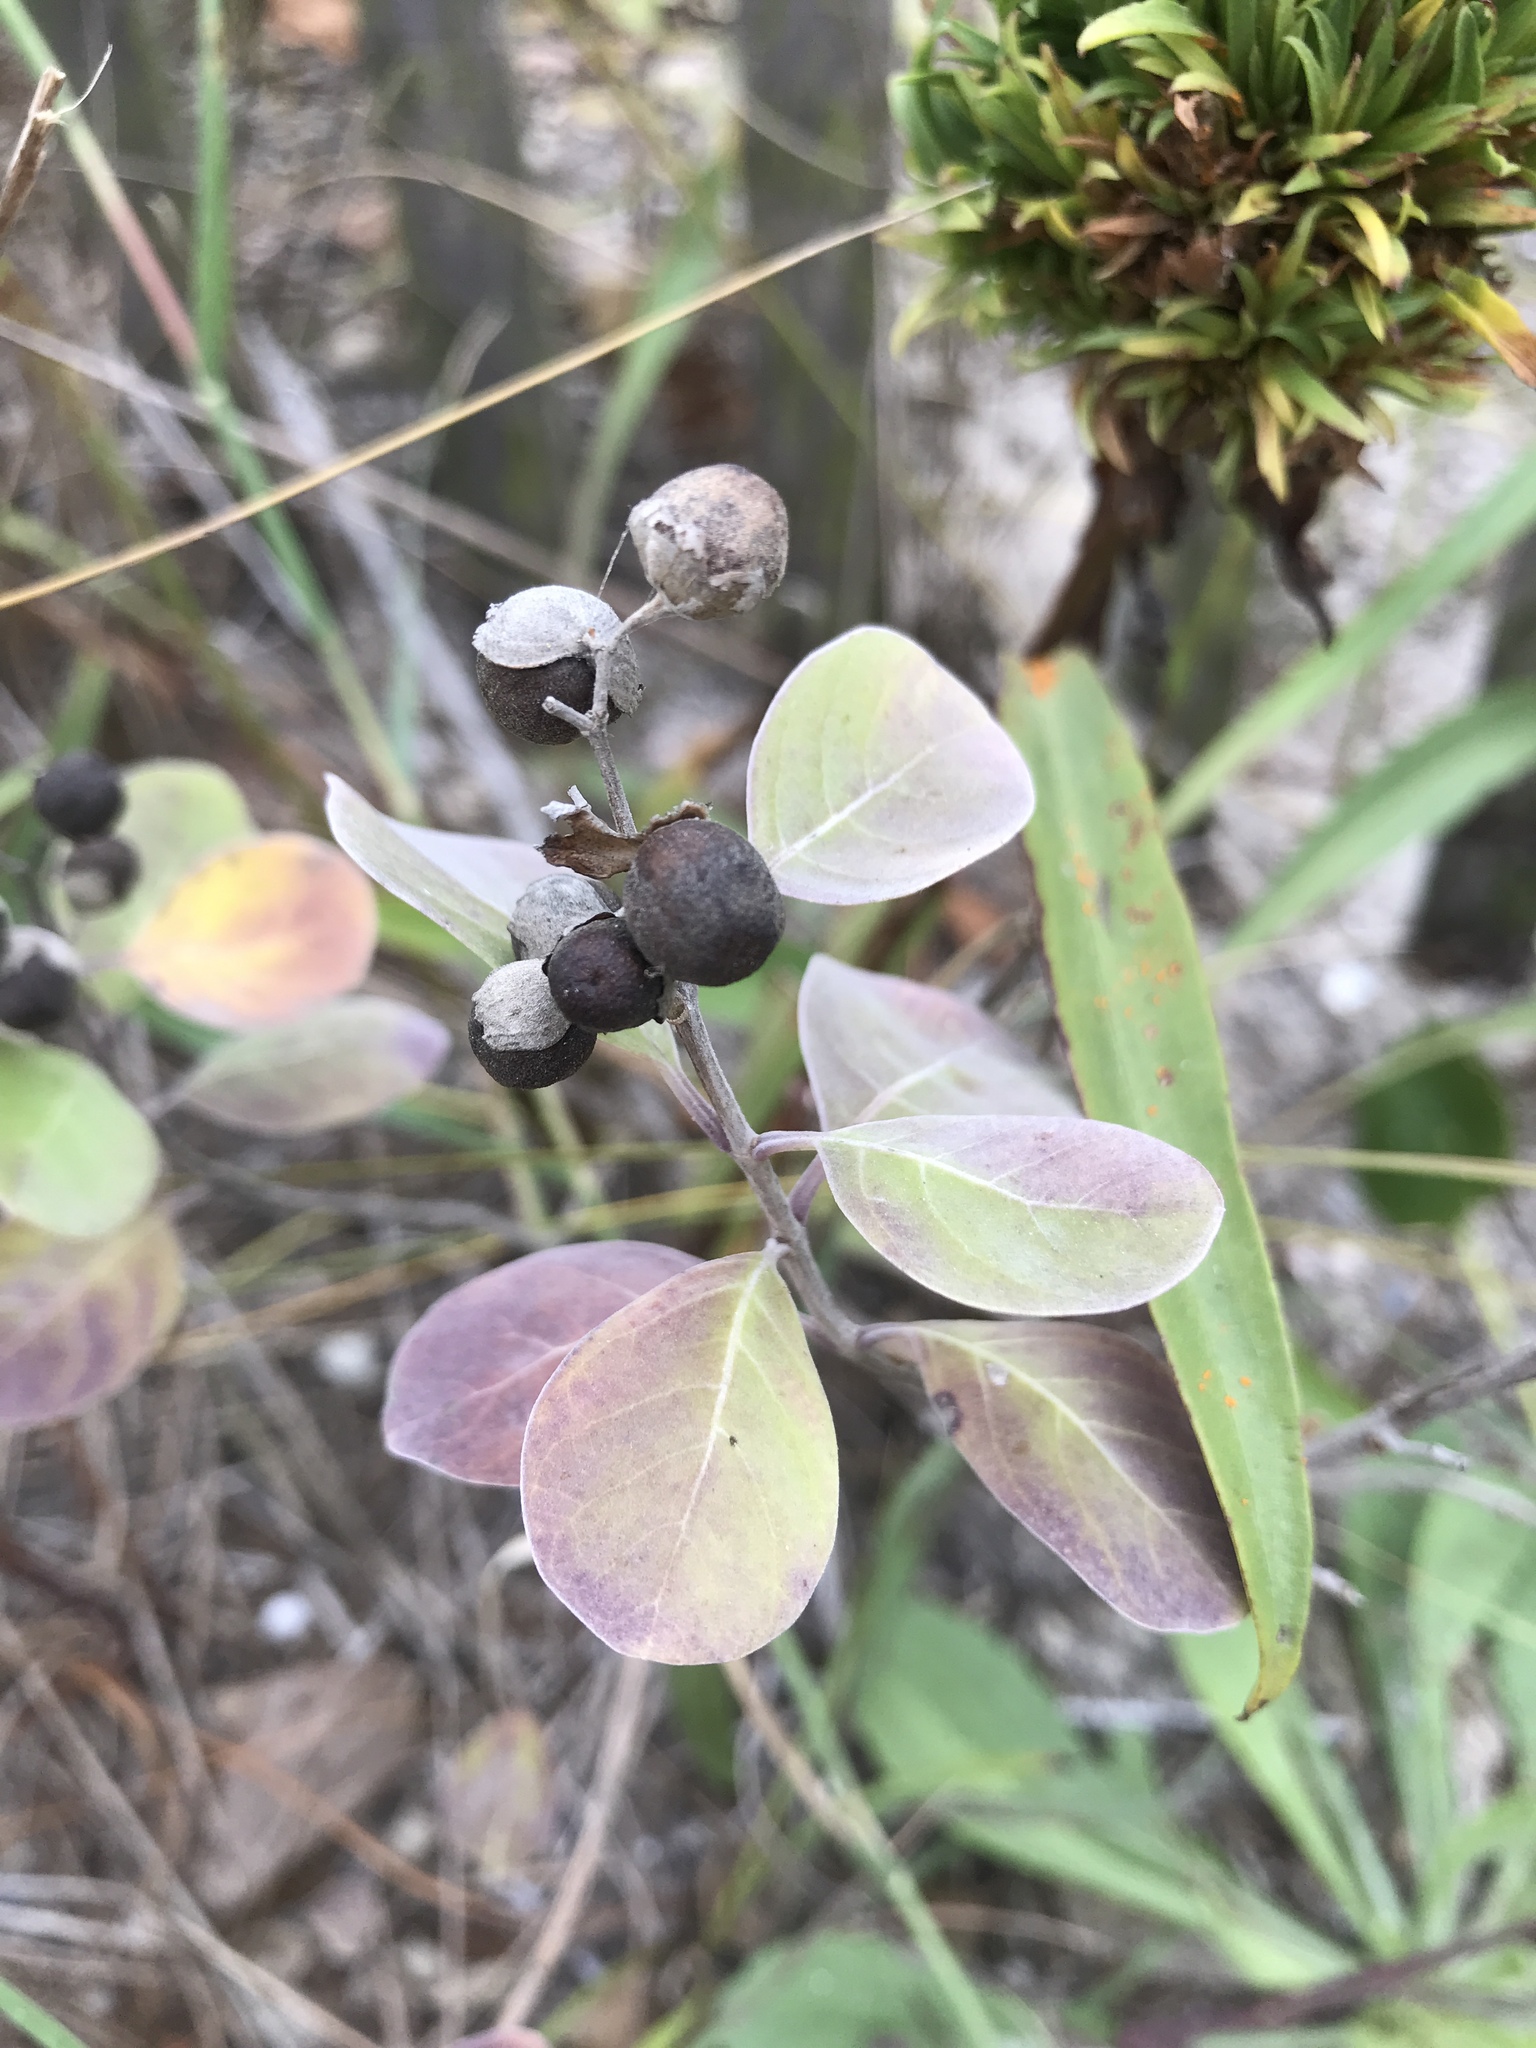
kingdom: Plantae
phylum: Tracheophyta
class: Magnoliopsida
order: Lamiales
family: Lamiaceae
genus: Vitex
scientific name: Vitex rotundifolia
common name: Beach vitex
